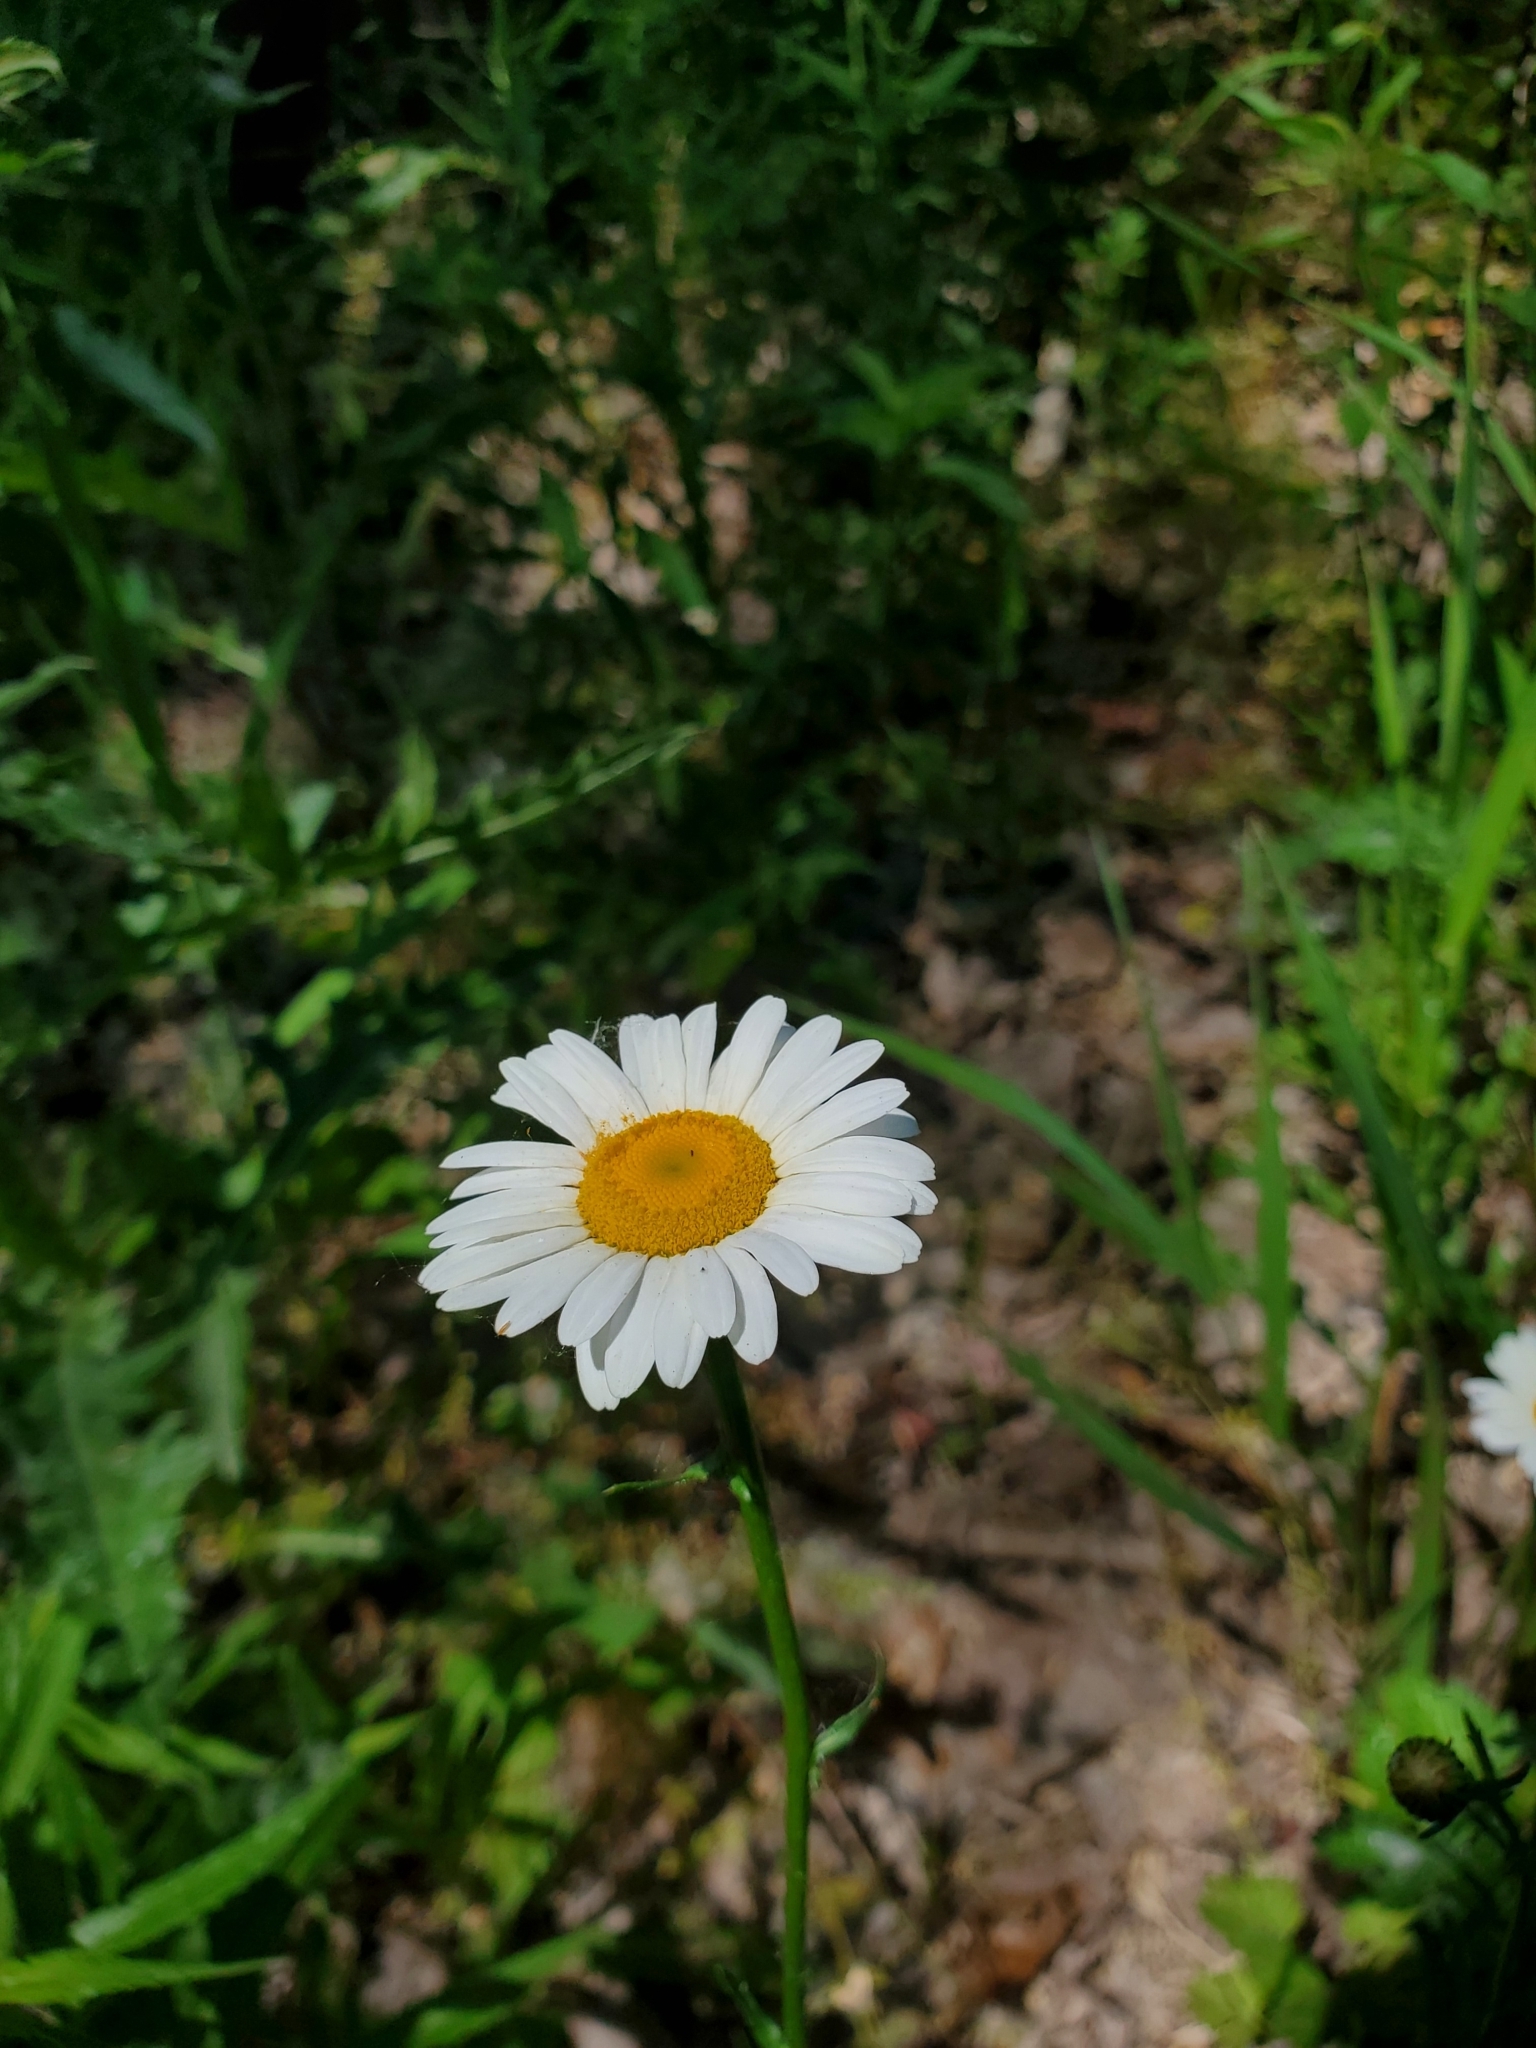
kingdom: Plantae
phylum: Tracheophyta
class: Magnoliopsida
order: Asterales
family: Asteraceae
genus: Leucanthemum
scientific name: Leucanthemum vulgare
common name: Oxeye daisy
